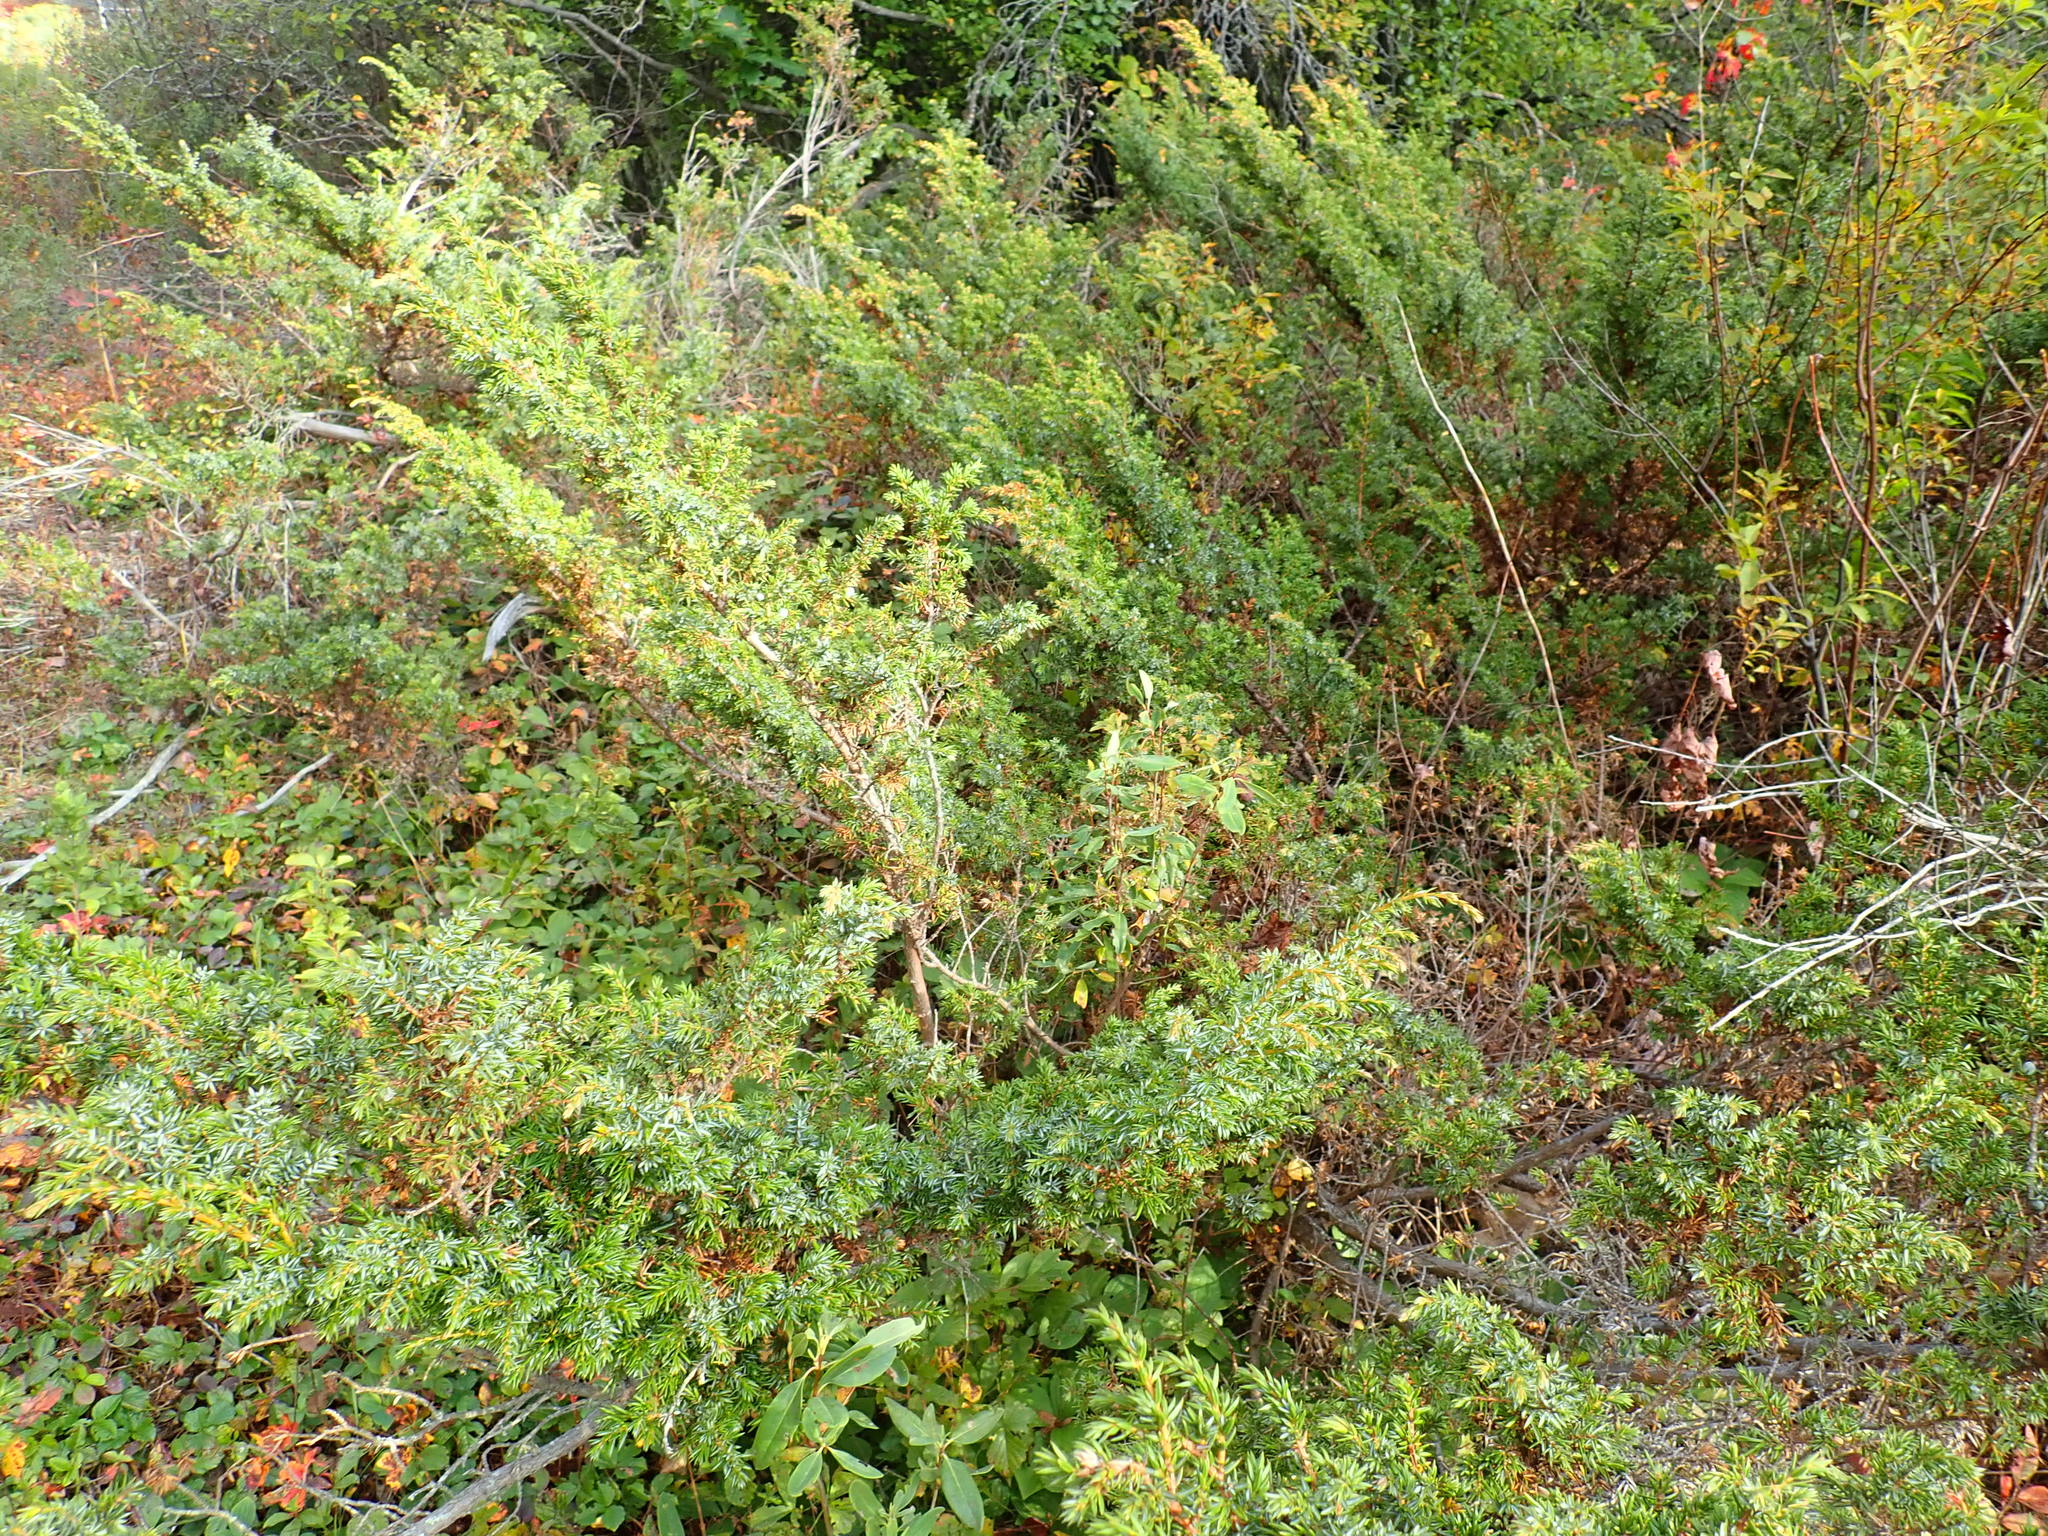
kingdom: Plantae
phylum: Tracheophyta
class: Pinopsida
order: Pinales
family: Cupressaceae
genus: Juniperus
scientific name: Juniperus communis
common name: Common juniper
